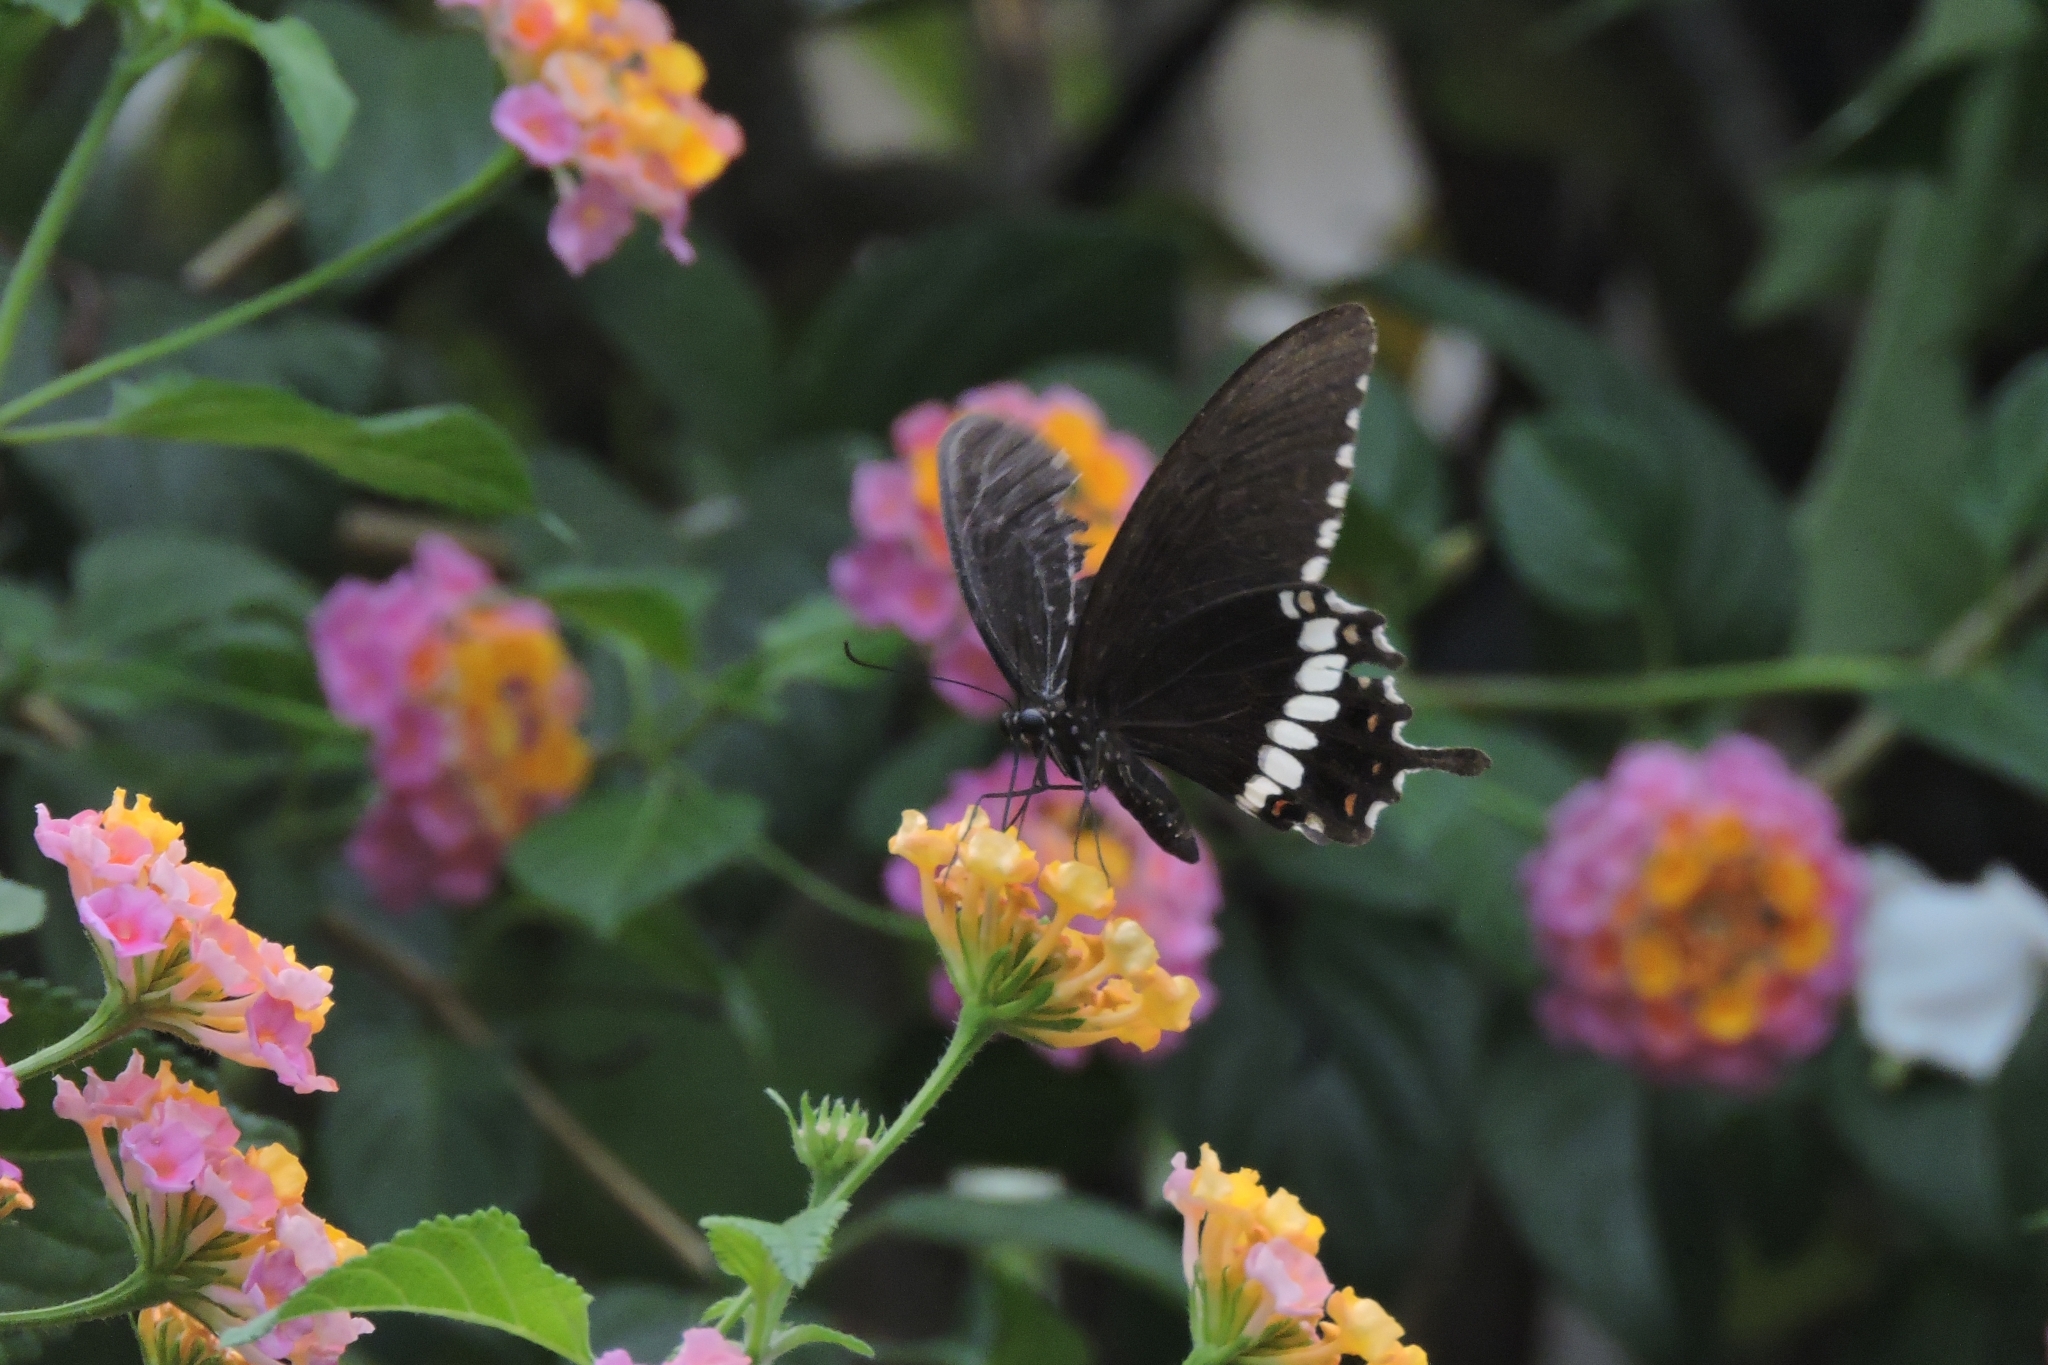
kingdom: Animalia
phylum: Arthropoda
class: Insecta
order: Lepidoptera
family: Papilionidae
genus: Papilio
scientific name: Papilio polytes
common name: Common mormon
